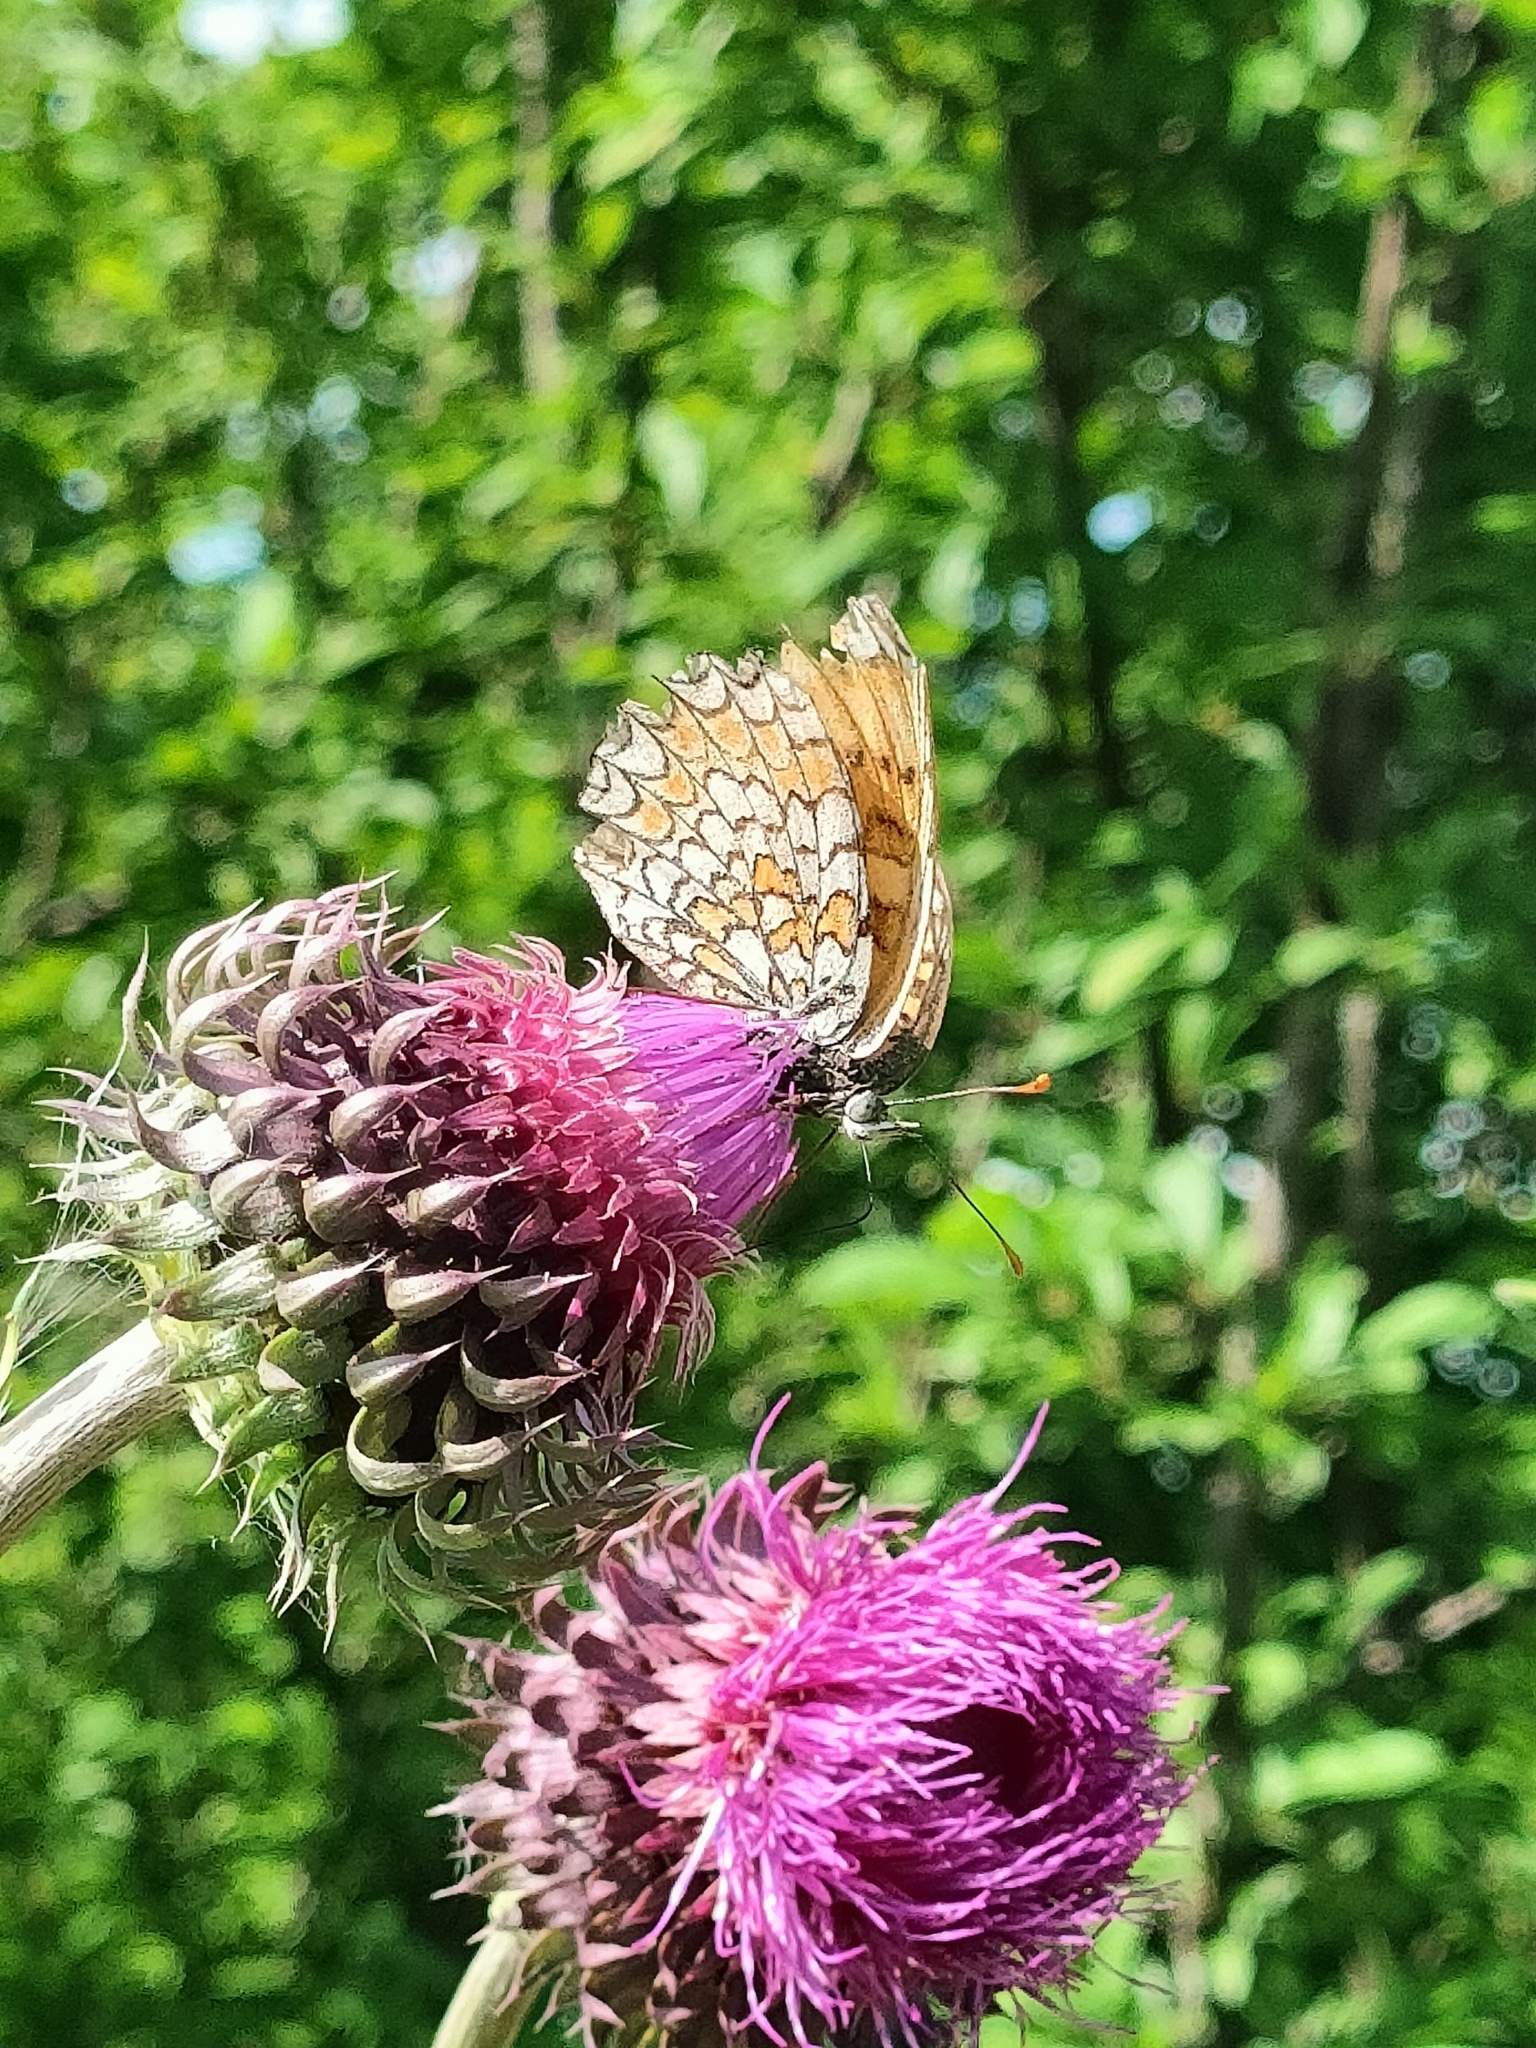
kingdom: Animalia
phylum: Arthropoda
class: Insecta
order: Lepidoptera
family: Nymphalidae
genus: Melitaea
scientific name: Melitaea phoebe
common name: Knapweed fritillary
